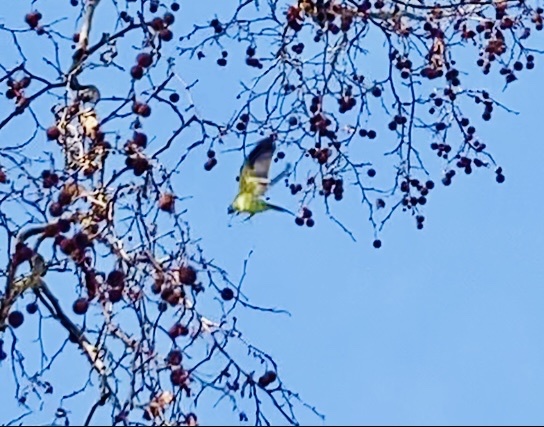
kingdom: Animalia
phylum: Chordata
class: Aves
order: Psittaciformes
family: Psittacidae
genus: Psittacula
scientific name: Psittacula krameri
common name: Rose-ringed parakeet
